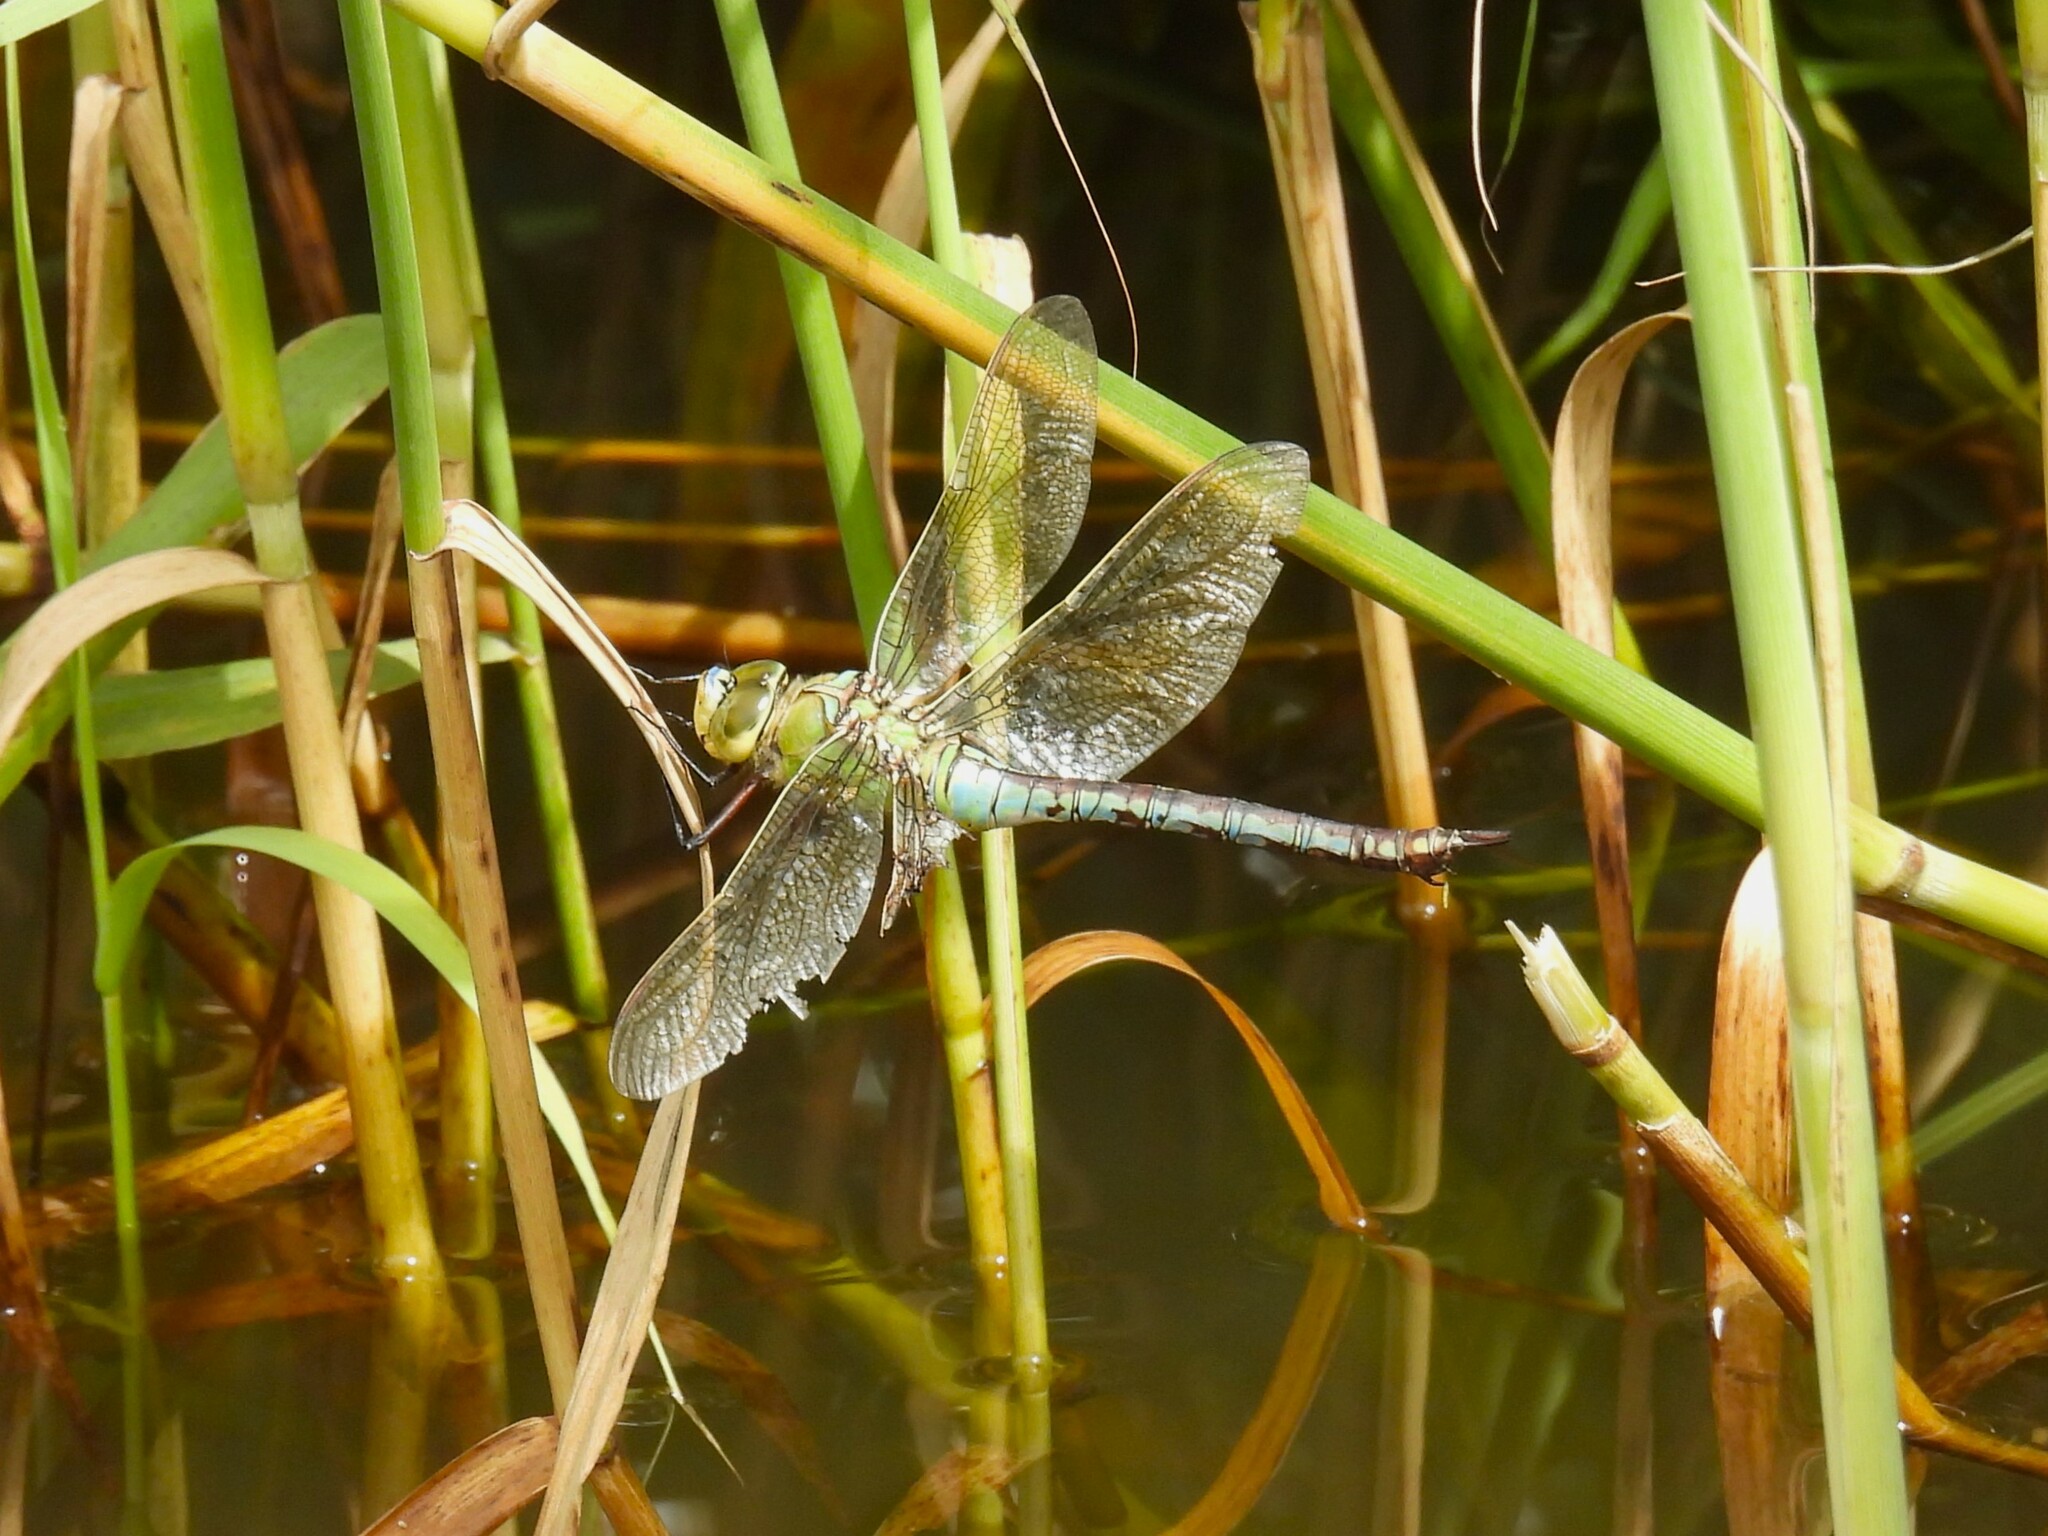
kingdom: Animalia
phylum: Arthropoda
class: Insecta
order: Odonata
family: Aeshnidae
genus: Anax
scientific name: Anax imperator
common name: Emperor dragonfly
